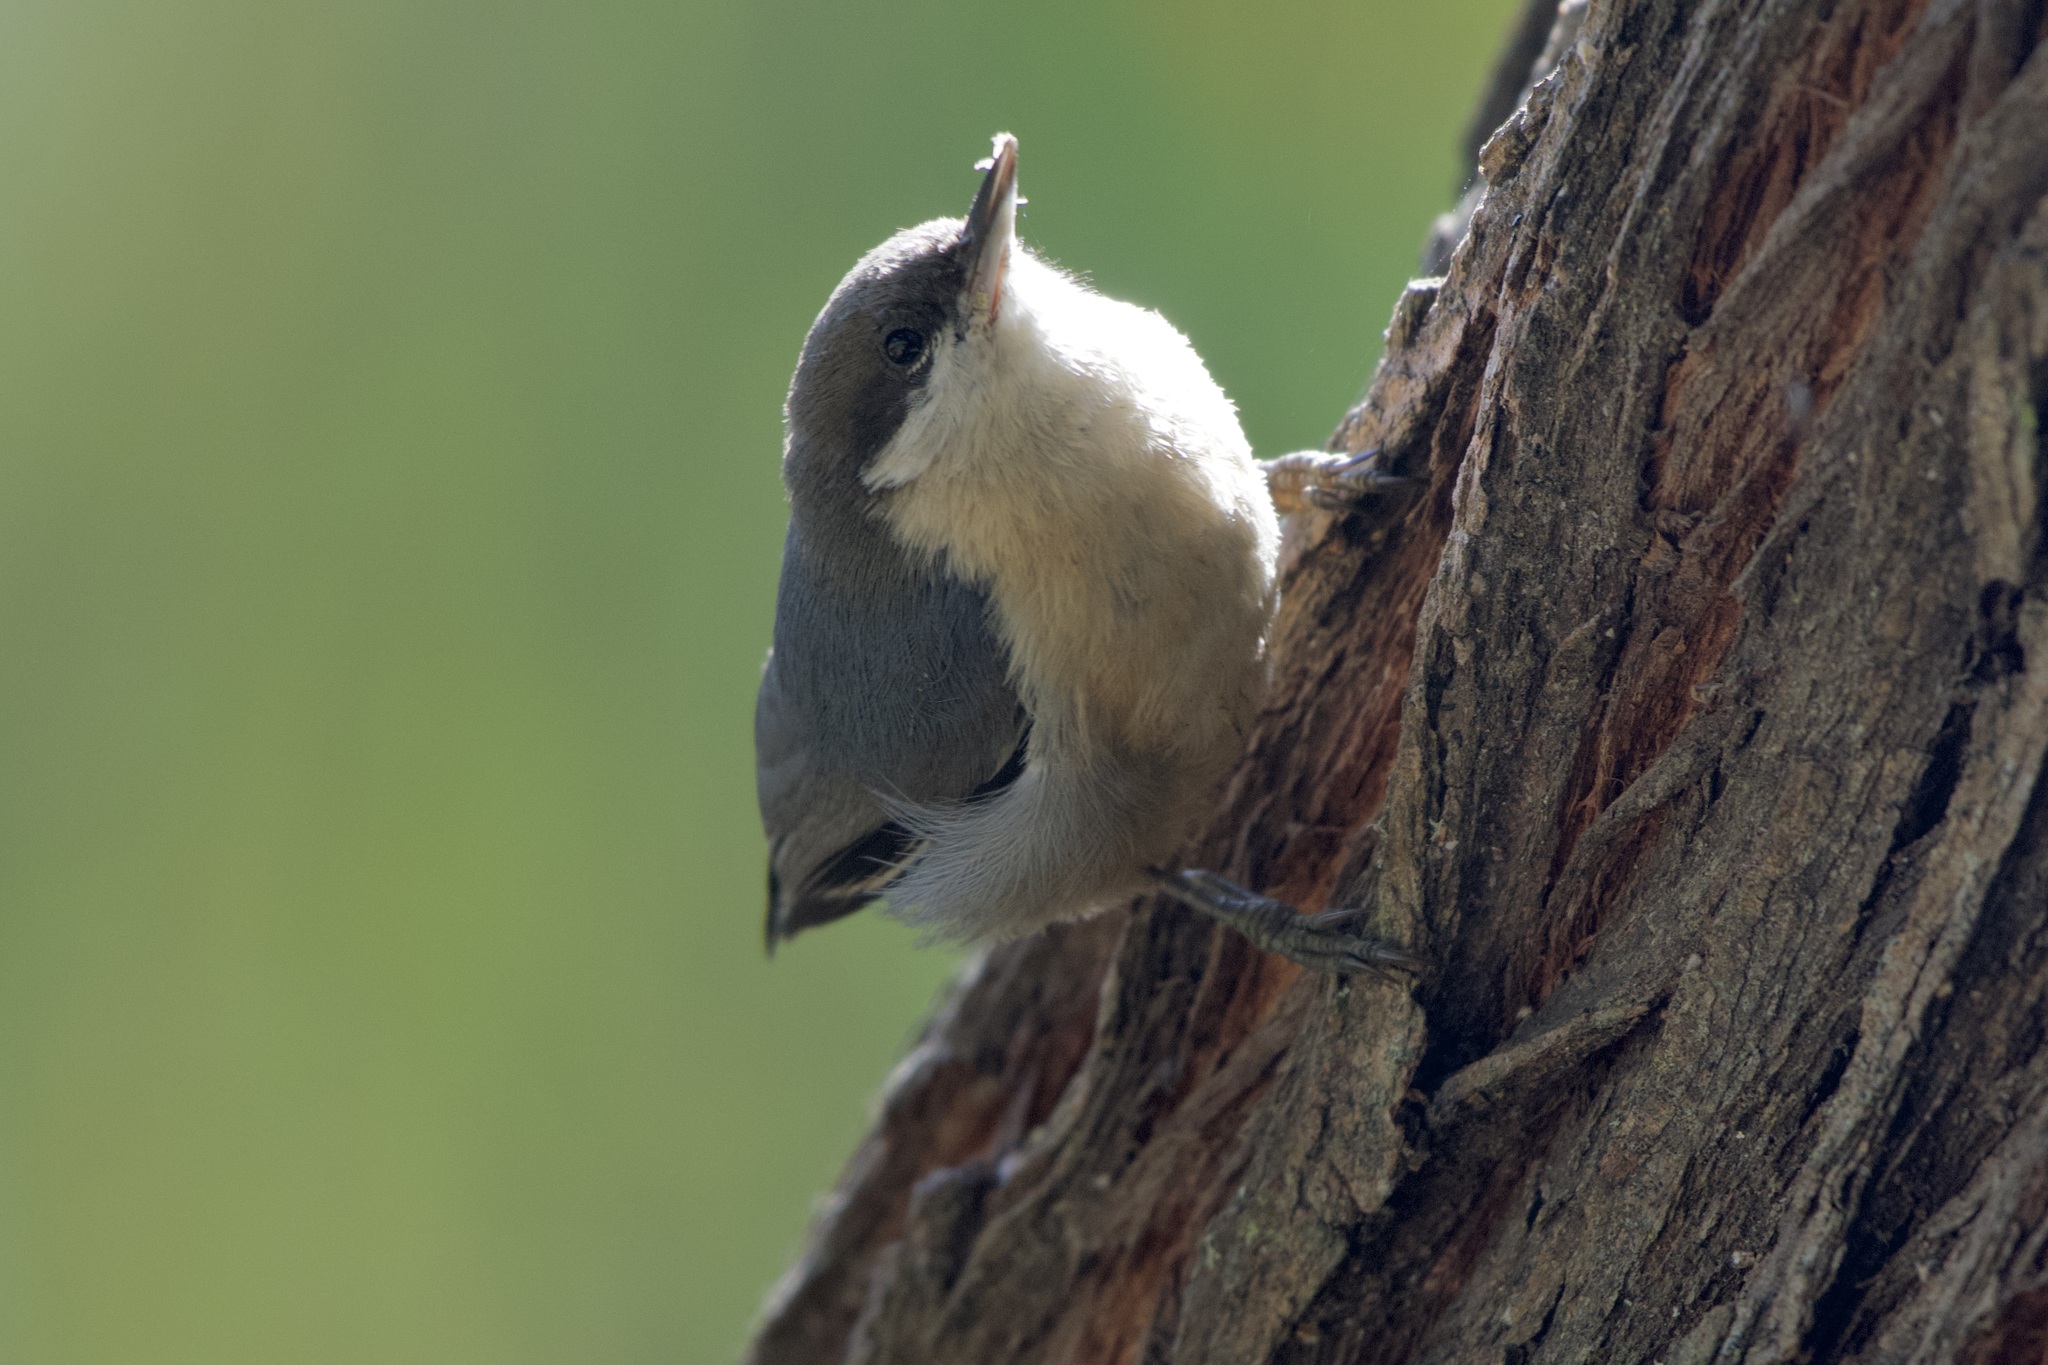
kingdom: Animalia
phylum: Chordata
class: Aves
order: Passeriformes
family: Sittidae
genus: Sitta
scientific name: Sitta pygmaea
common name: Pygmy nuthatch
